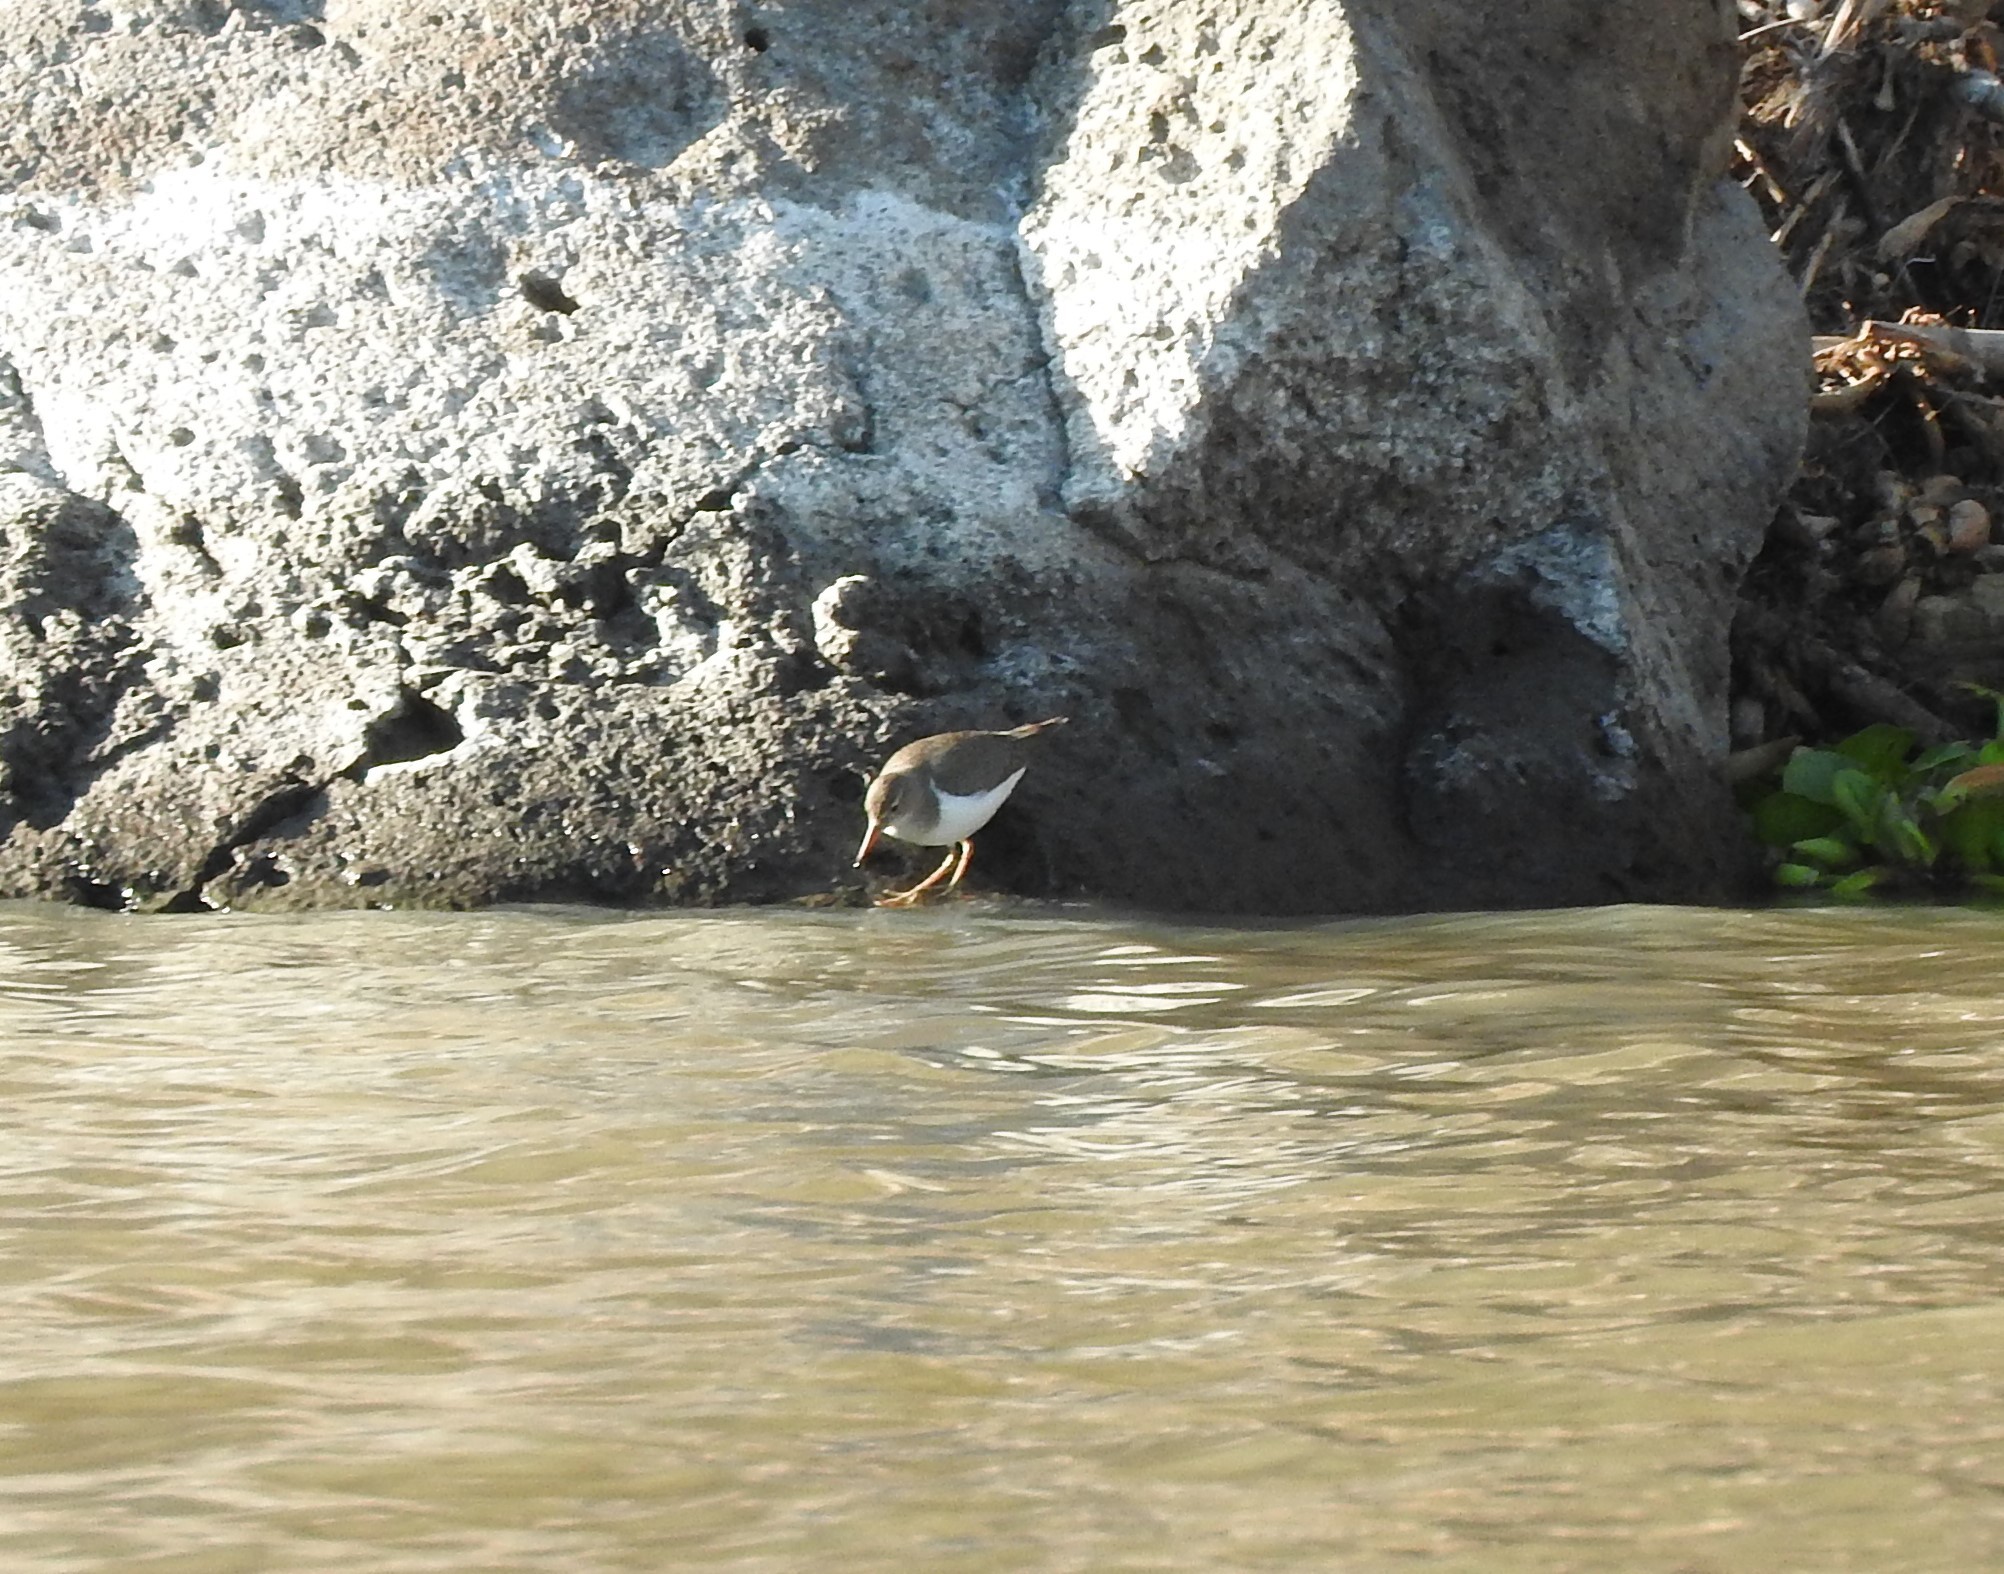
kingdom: Animalia
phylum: Chordata
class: Aves
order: Charadriiformes
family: Scolopacidae
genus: Actitis
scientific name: Actitis macularius
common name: Spotted sandpiper
